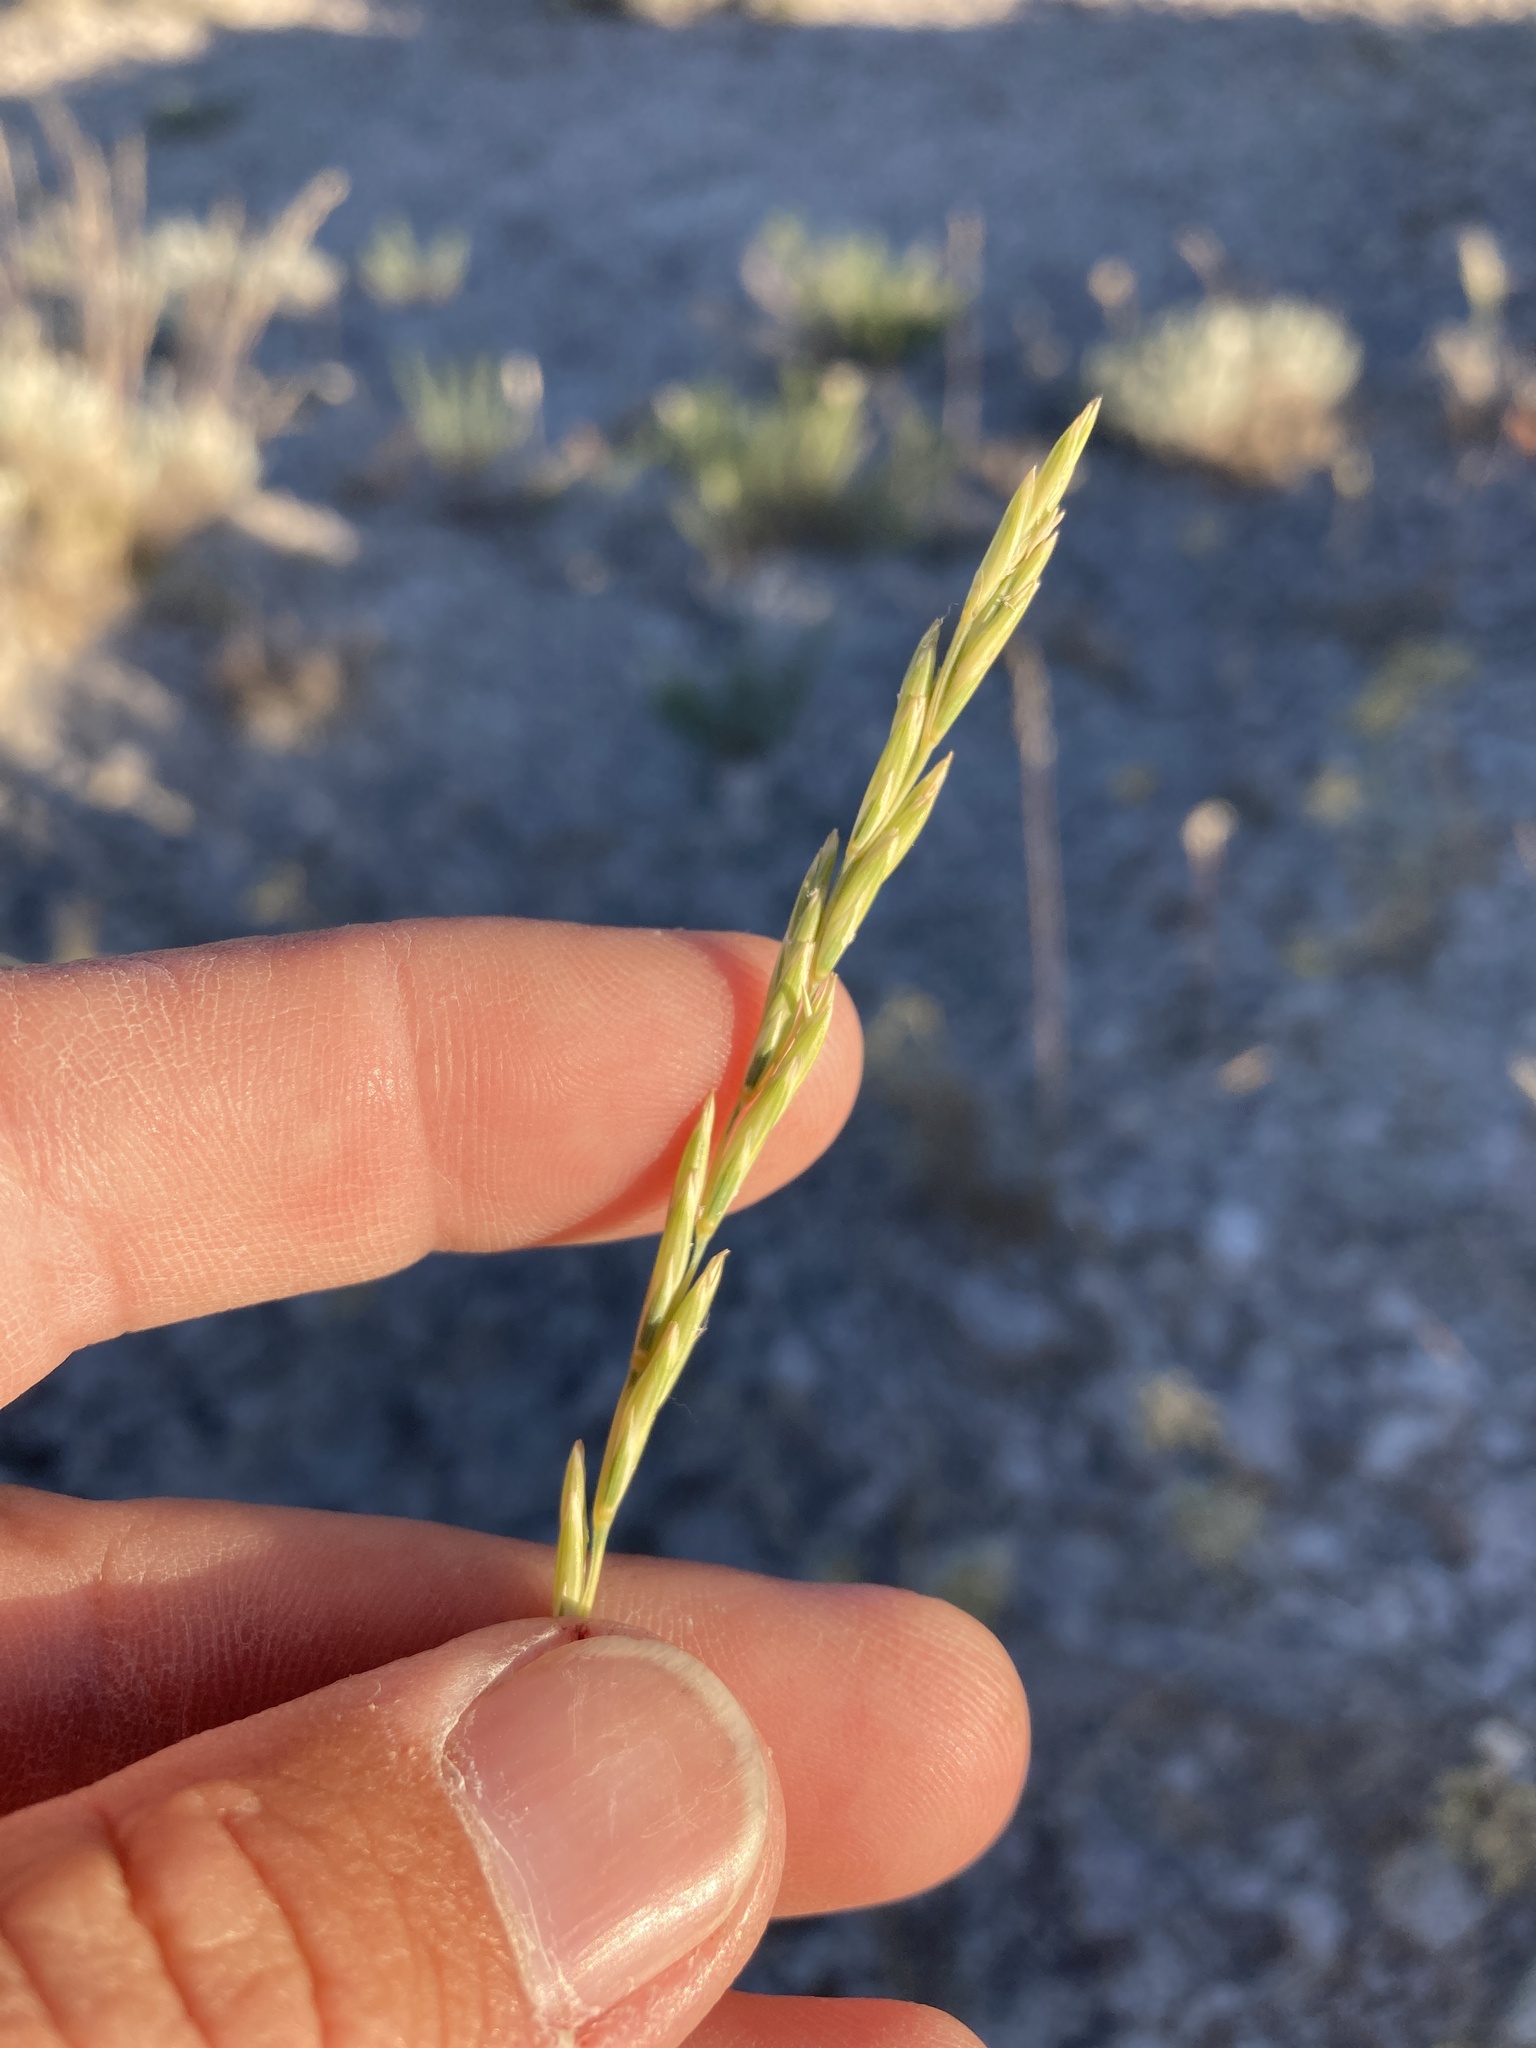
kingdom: Plantae
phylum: Tracheophyta
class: Liliopsida
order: Poales
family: Poaceae
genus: Elymus
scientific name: Elymus lanceolatus
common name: Thick-spike wheatgrass
